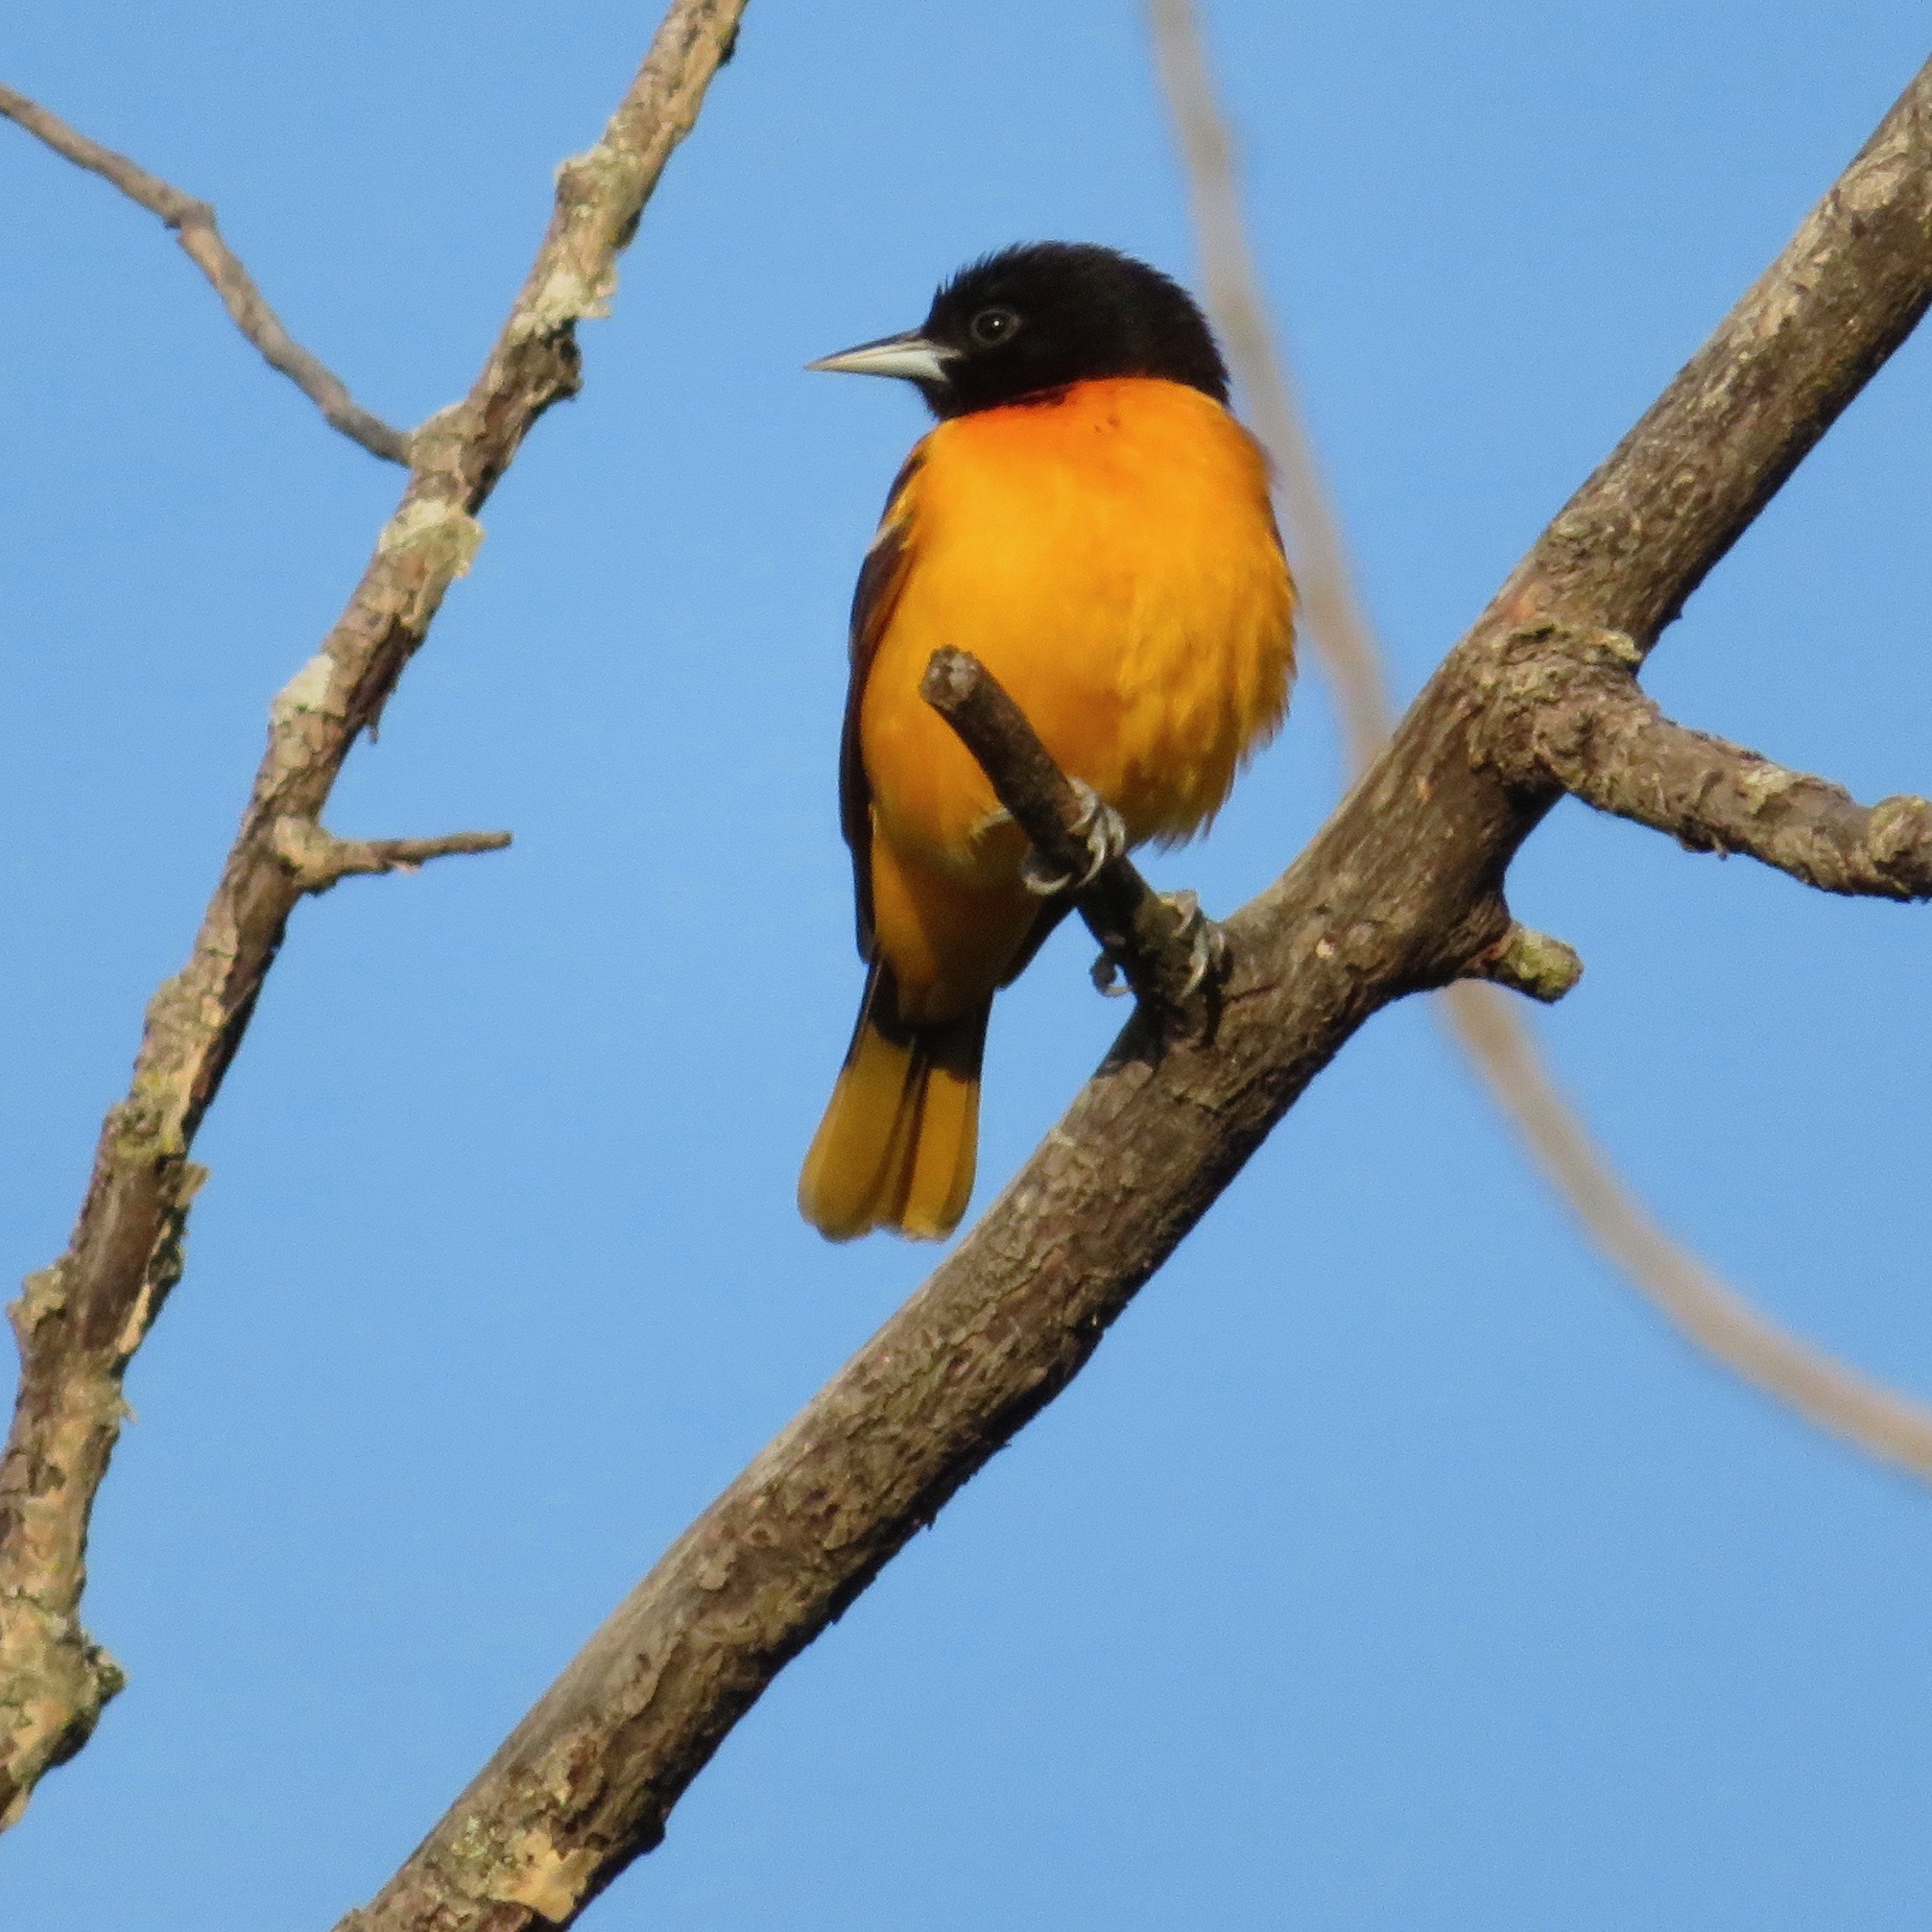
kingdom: Animalia
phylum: Chordata
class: Aves
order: Passeriformes
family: Icteridae
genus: Icterus
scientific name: Icterus galbula
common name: Baltimore oriole
